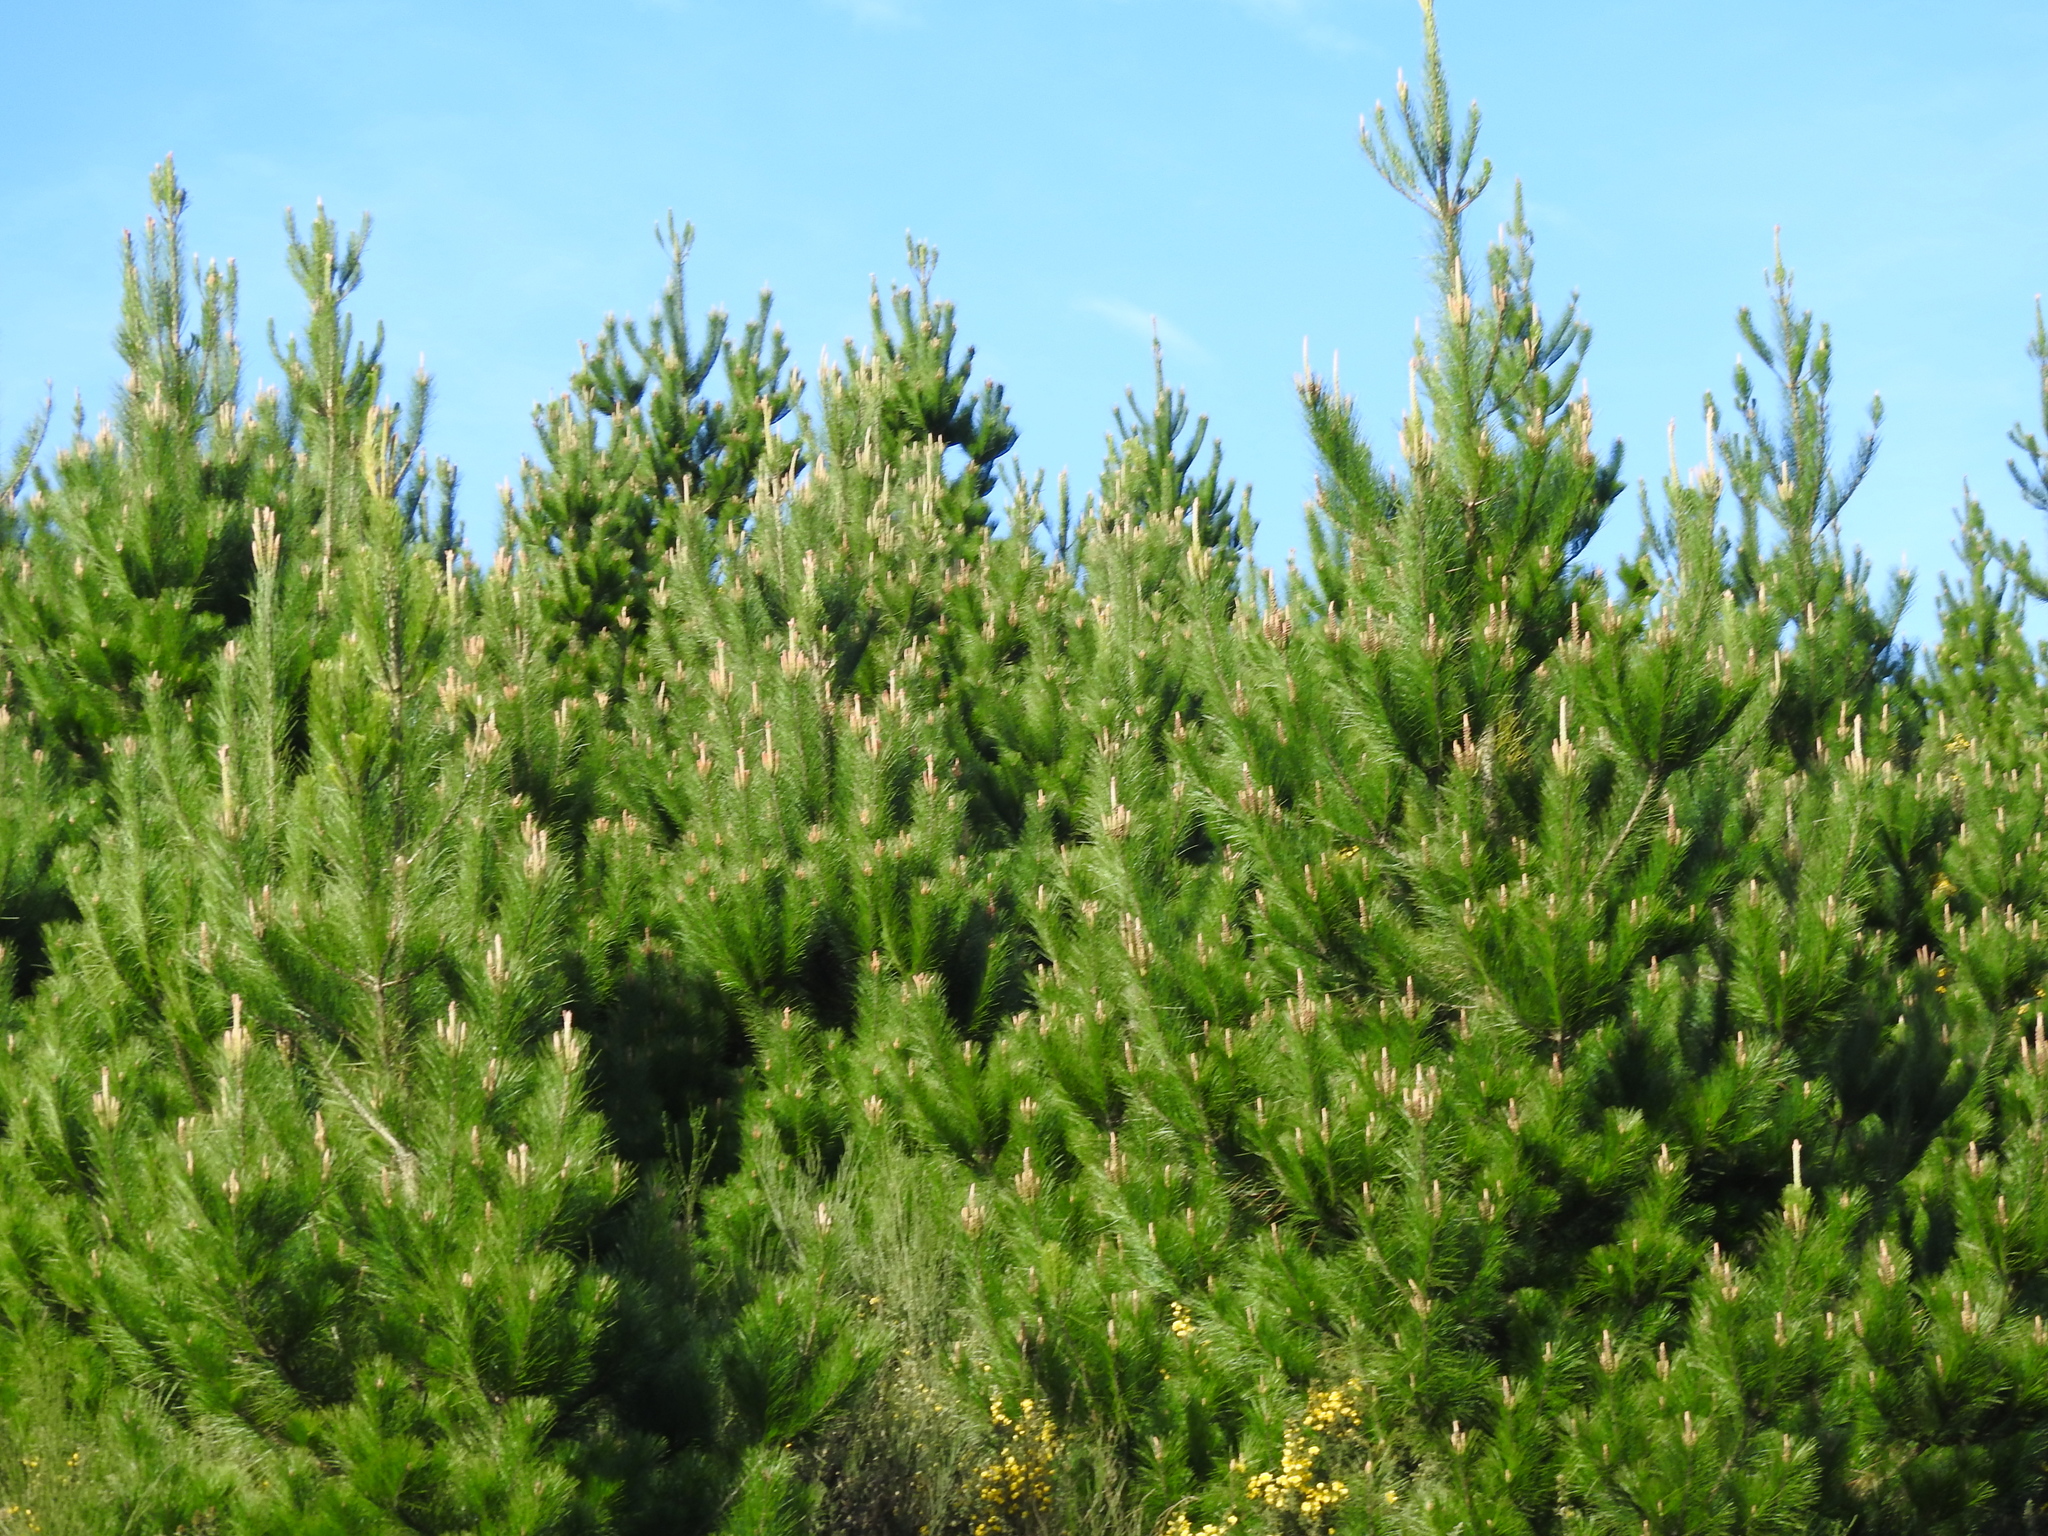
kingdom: Plantae
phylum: Tracheophyta
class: Pinopsida
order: Pinales
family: Pinaceae
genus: Pinus
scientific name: Pinus radiata
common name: Monterey pine
